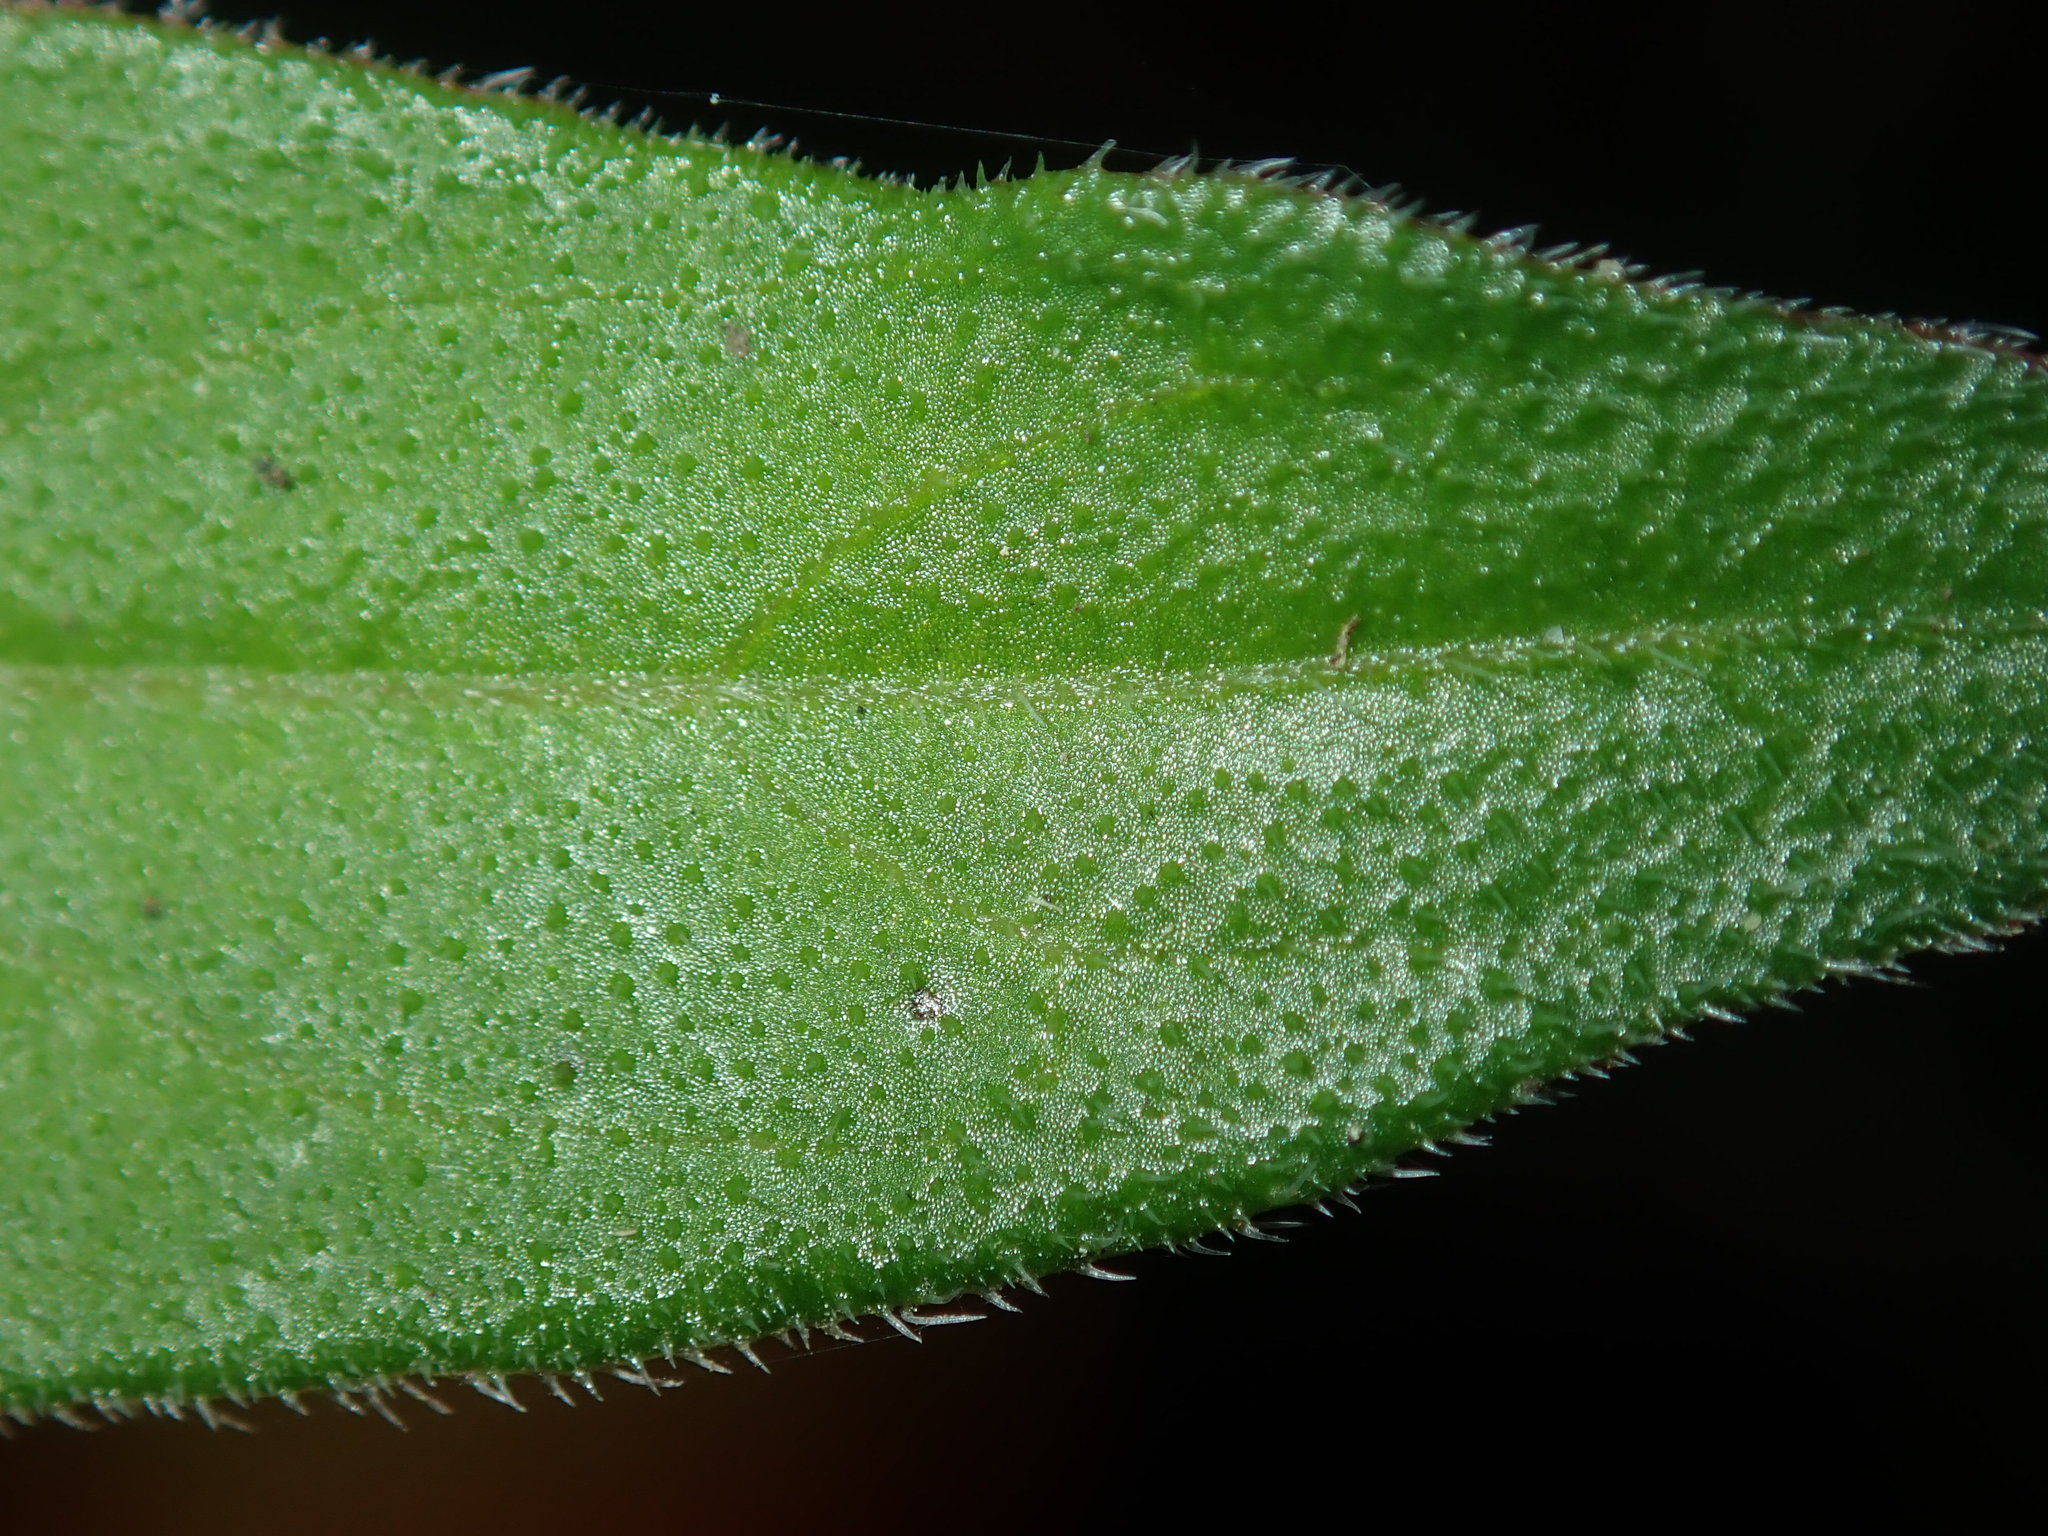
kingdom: Plantae
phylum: Tracheophyta
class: Magnoliopsida
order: Gentianales
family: Rubiaceae
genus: Opercularia
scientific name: Opercularia aspera
